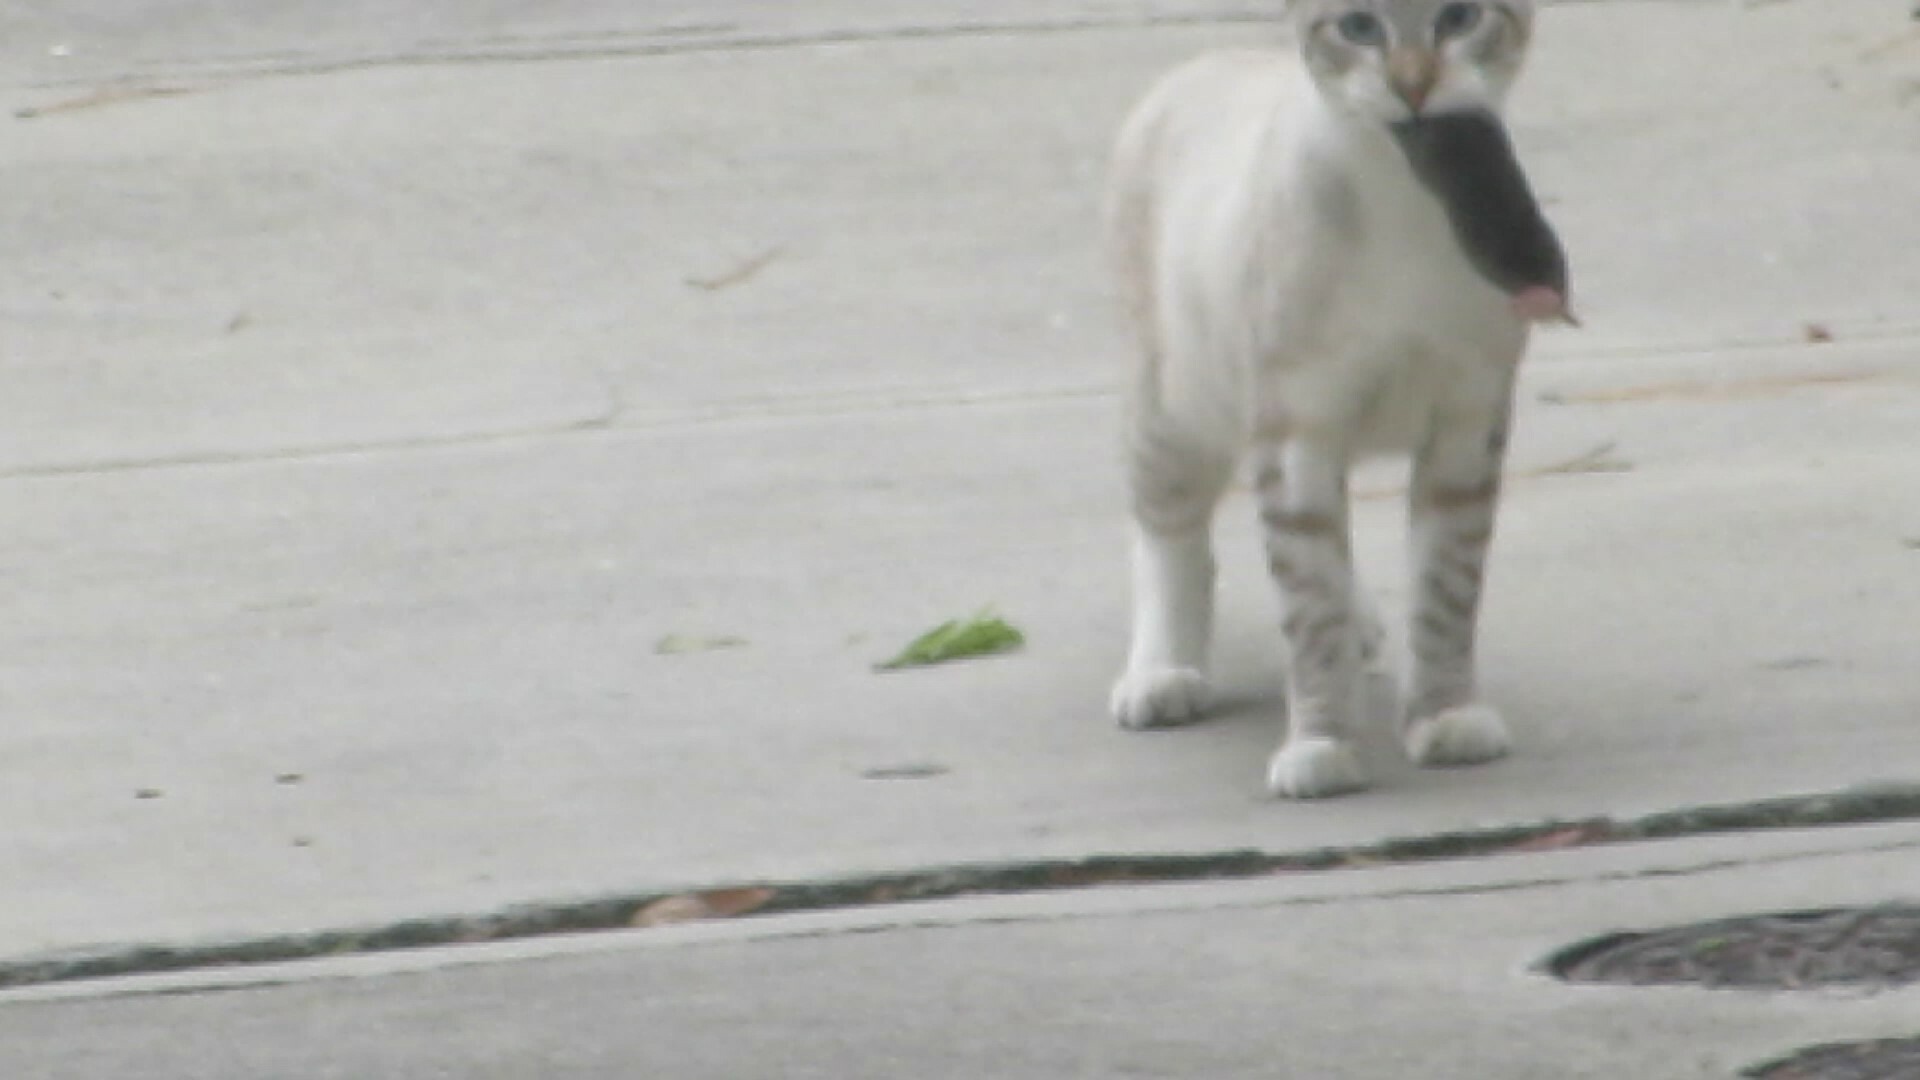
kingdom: Animalia
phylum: Chordata
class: Mammalia
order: Carnivora
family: Felidae
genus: Felis
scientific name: Felis catus
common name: Domestic cat
